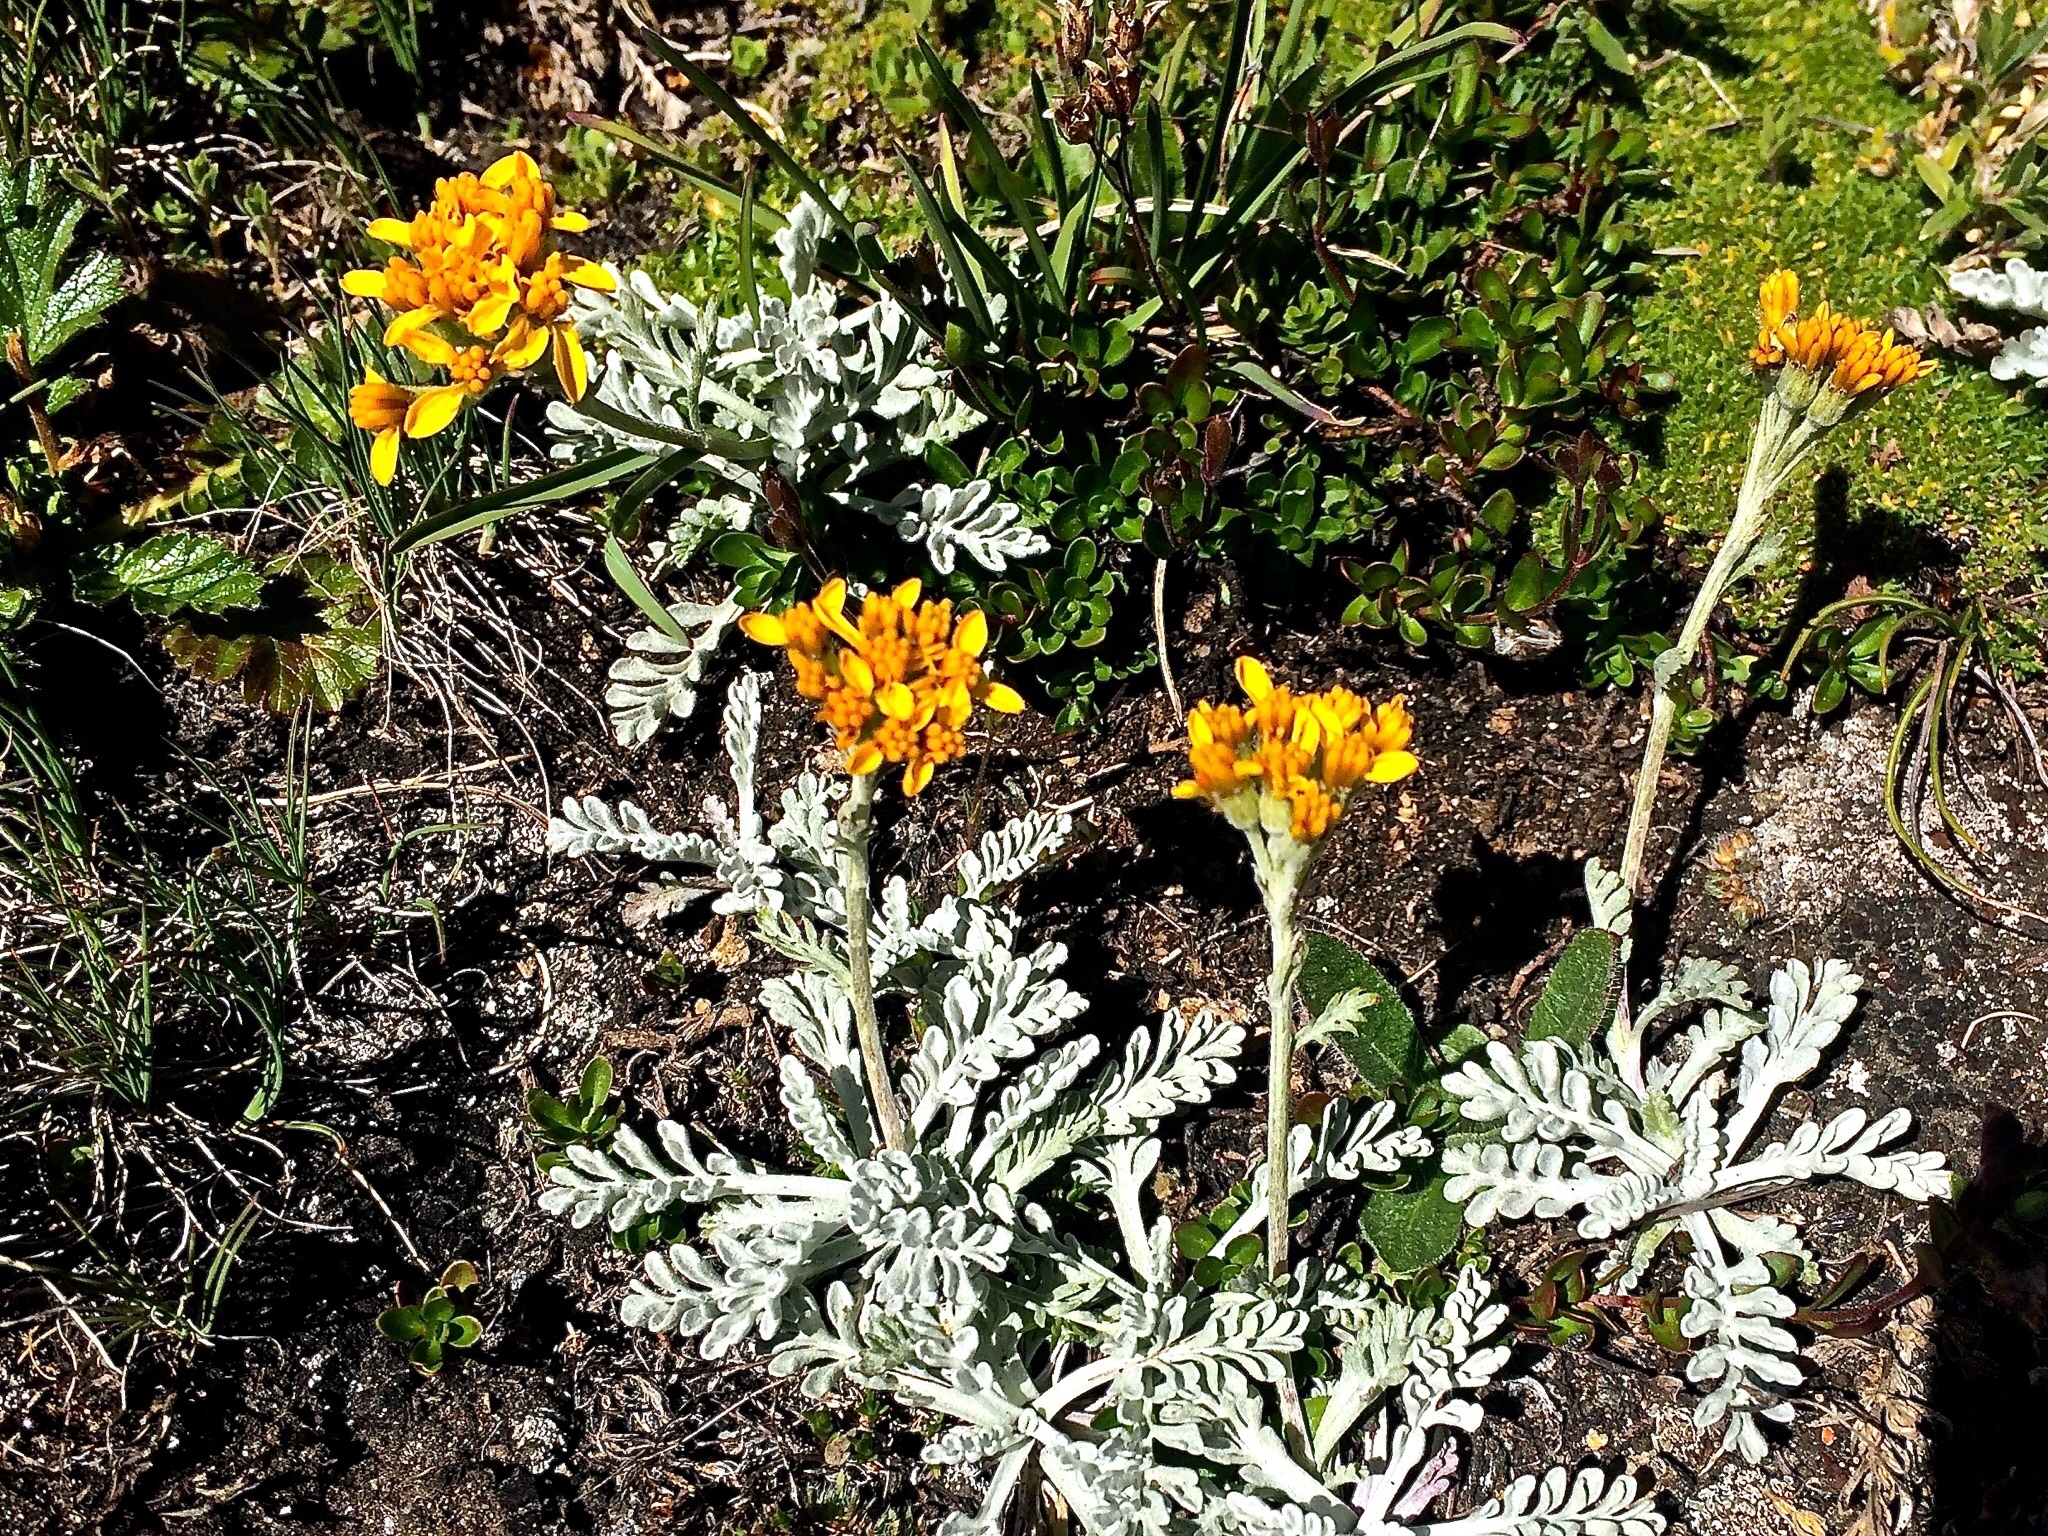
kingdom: Plantae
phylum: Tracheophyta
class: Magnoliopsida
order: Asterales
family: Asteraceae
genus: Jacobaea
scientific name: Jacobaea incana
